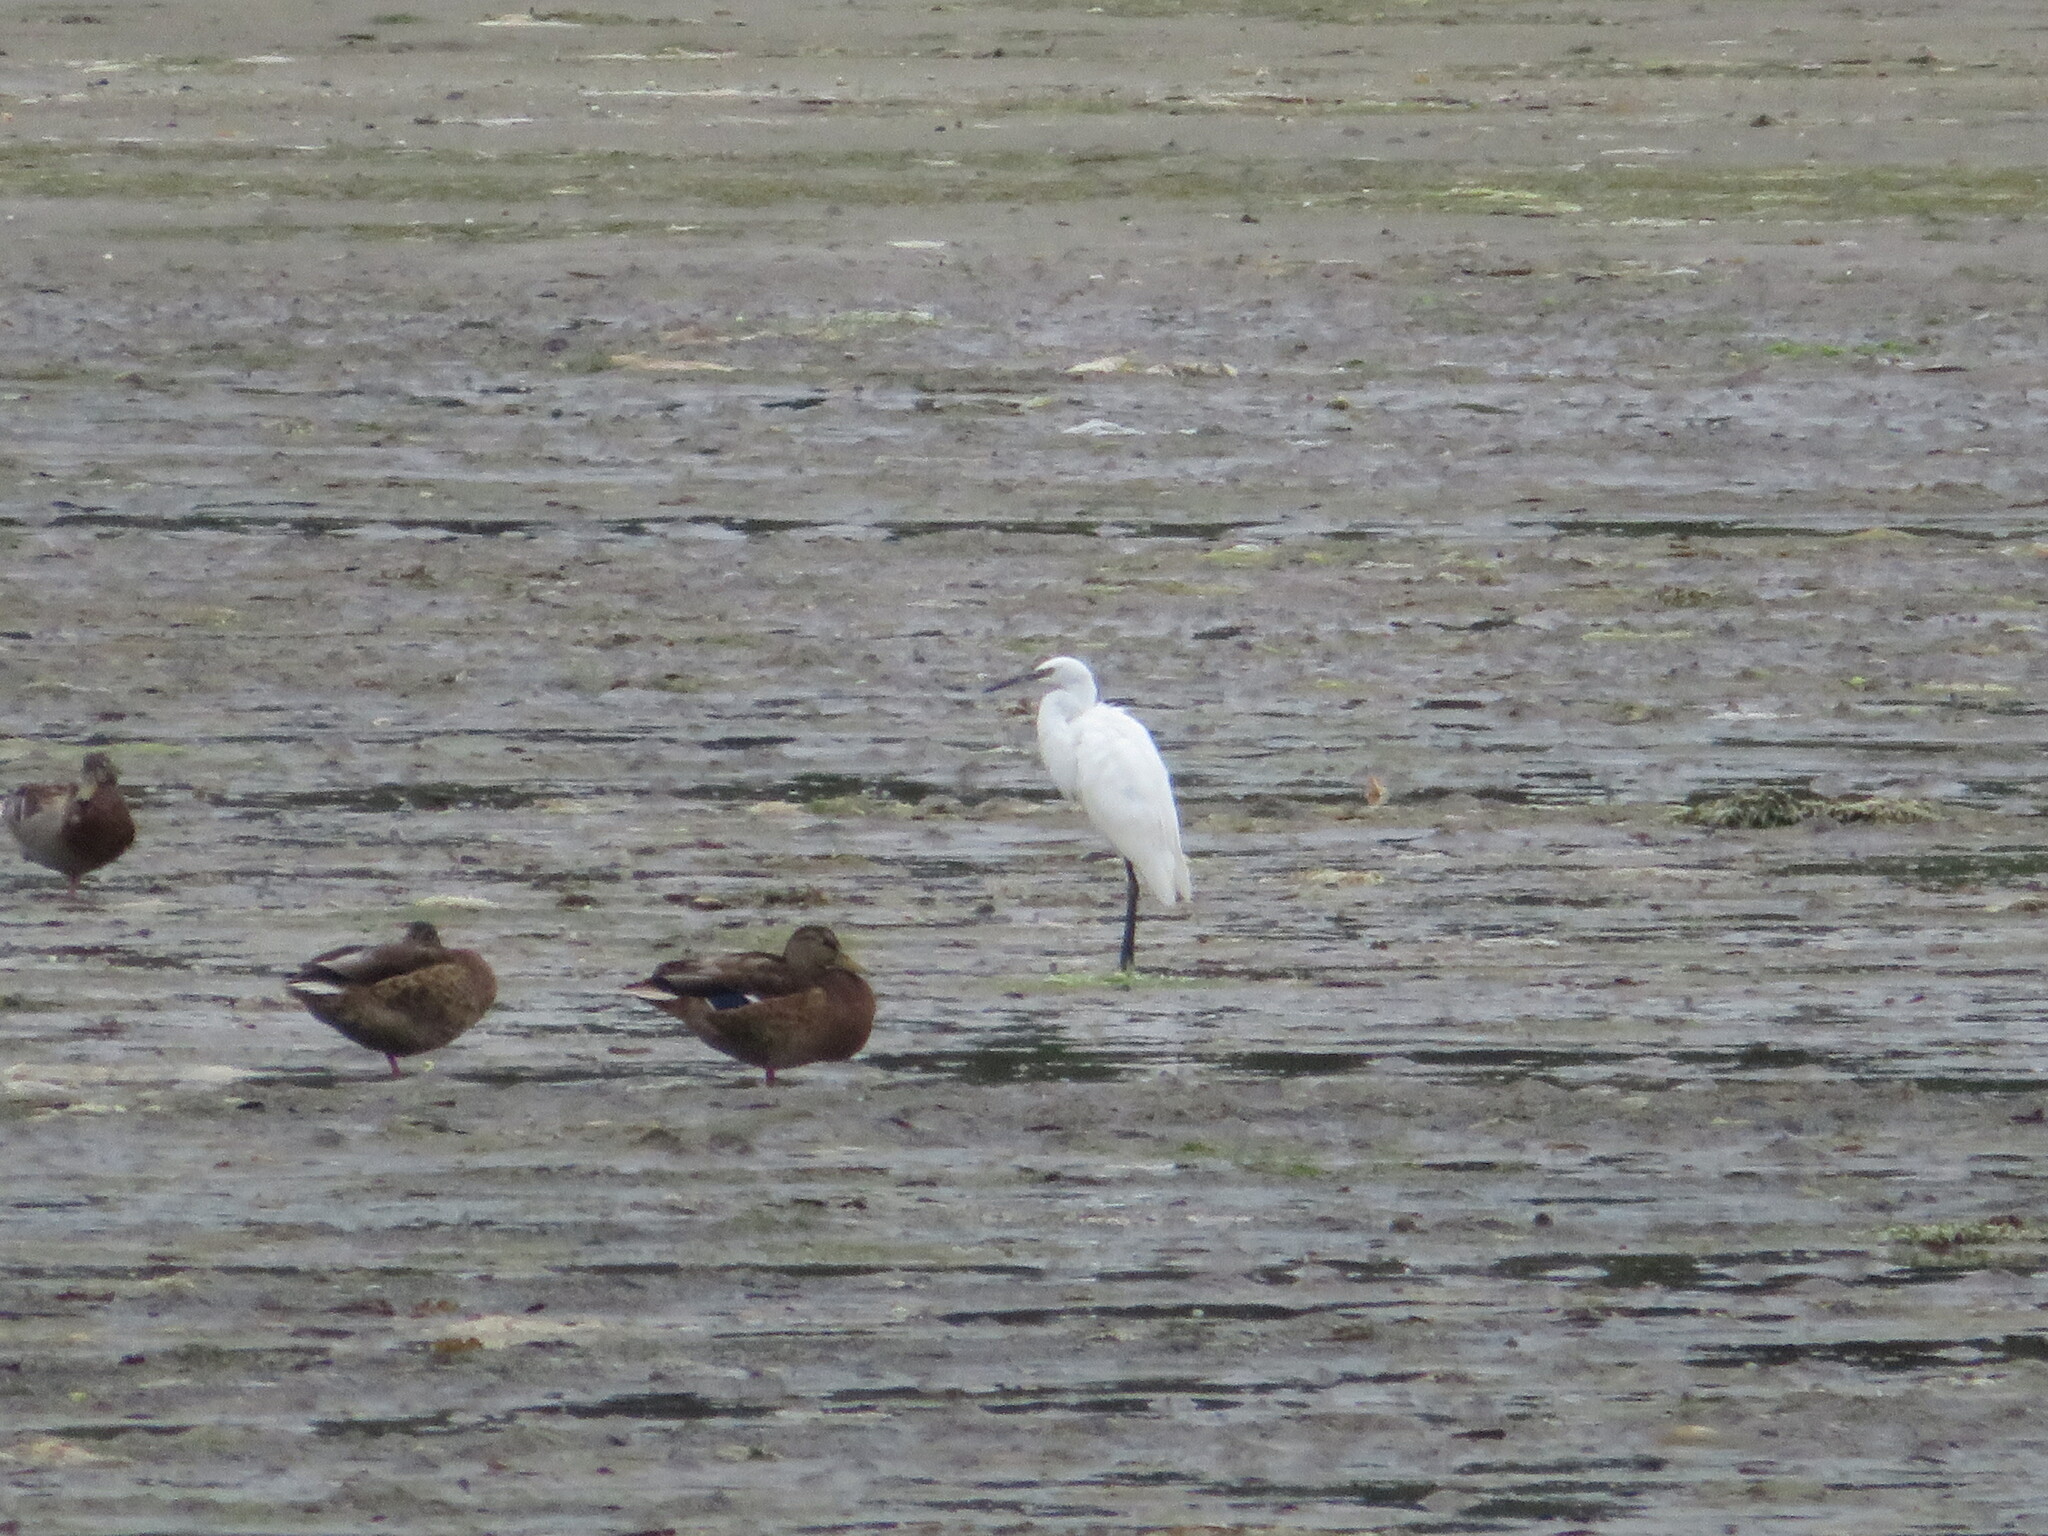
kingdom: Animalia
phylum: Chordata
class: Aves
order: Pelecaniformes
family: Ardeidae
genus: Egretta
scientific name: Egretta garzetta
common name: Little egret
